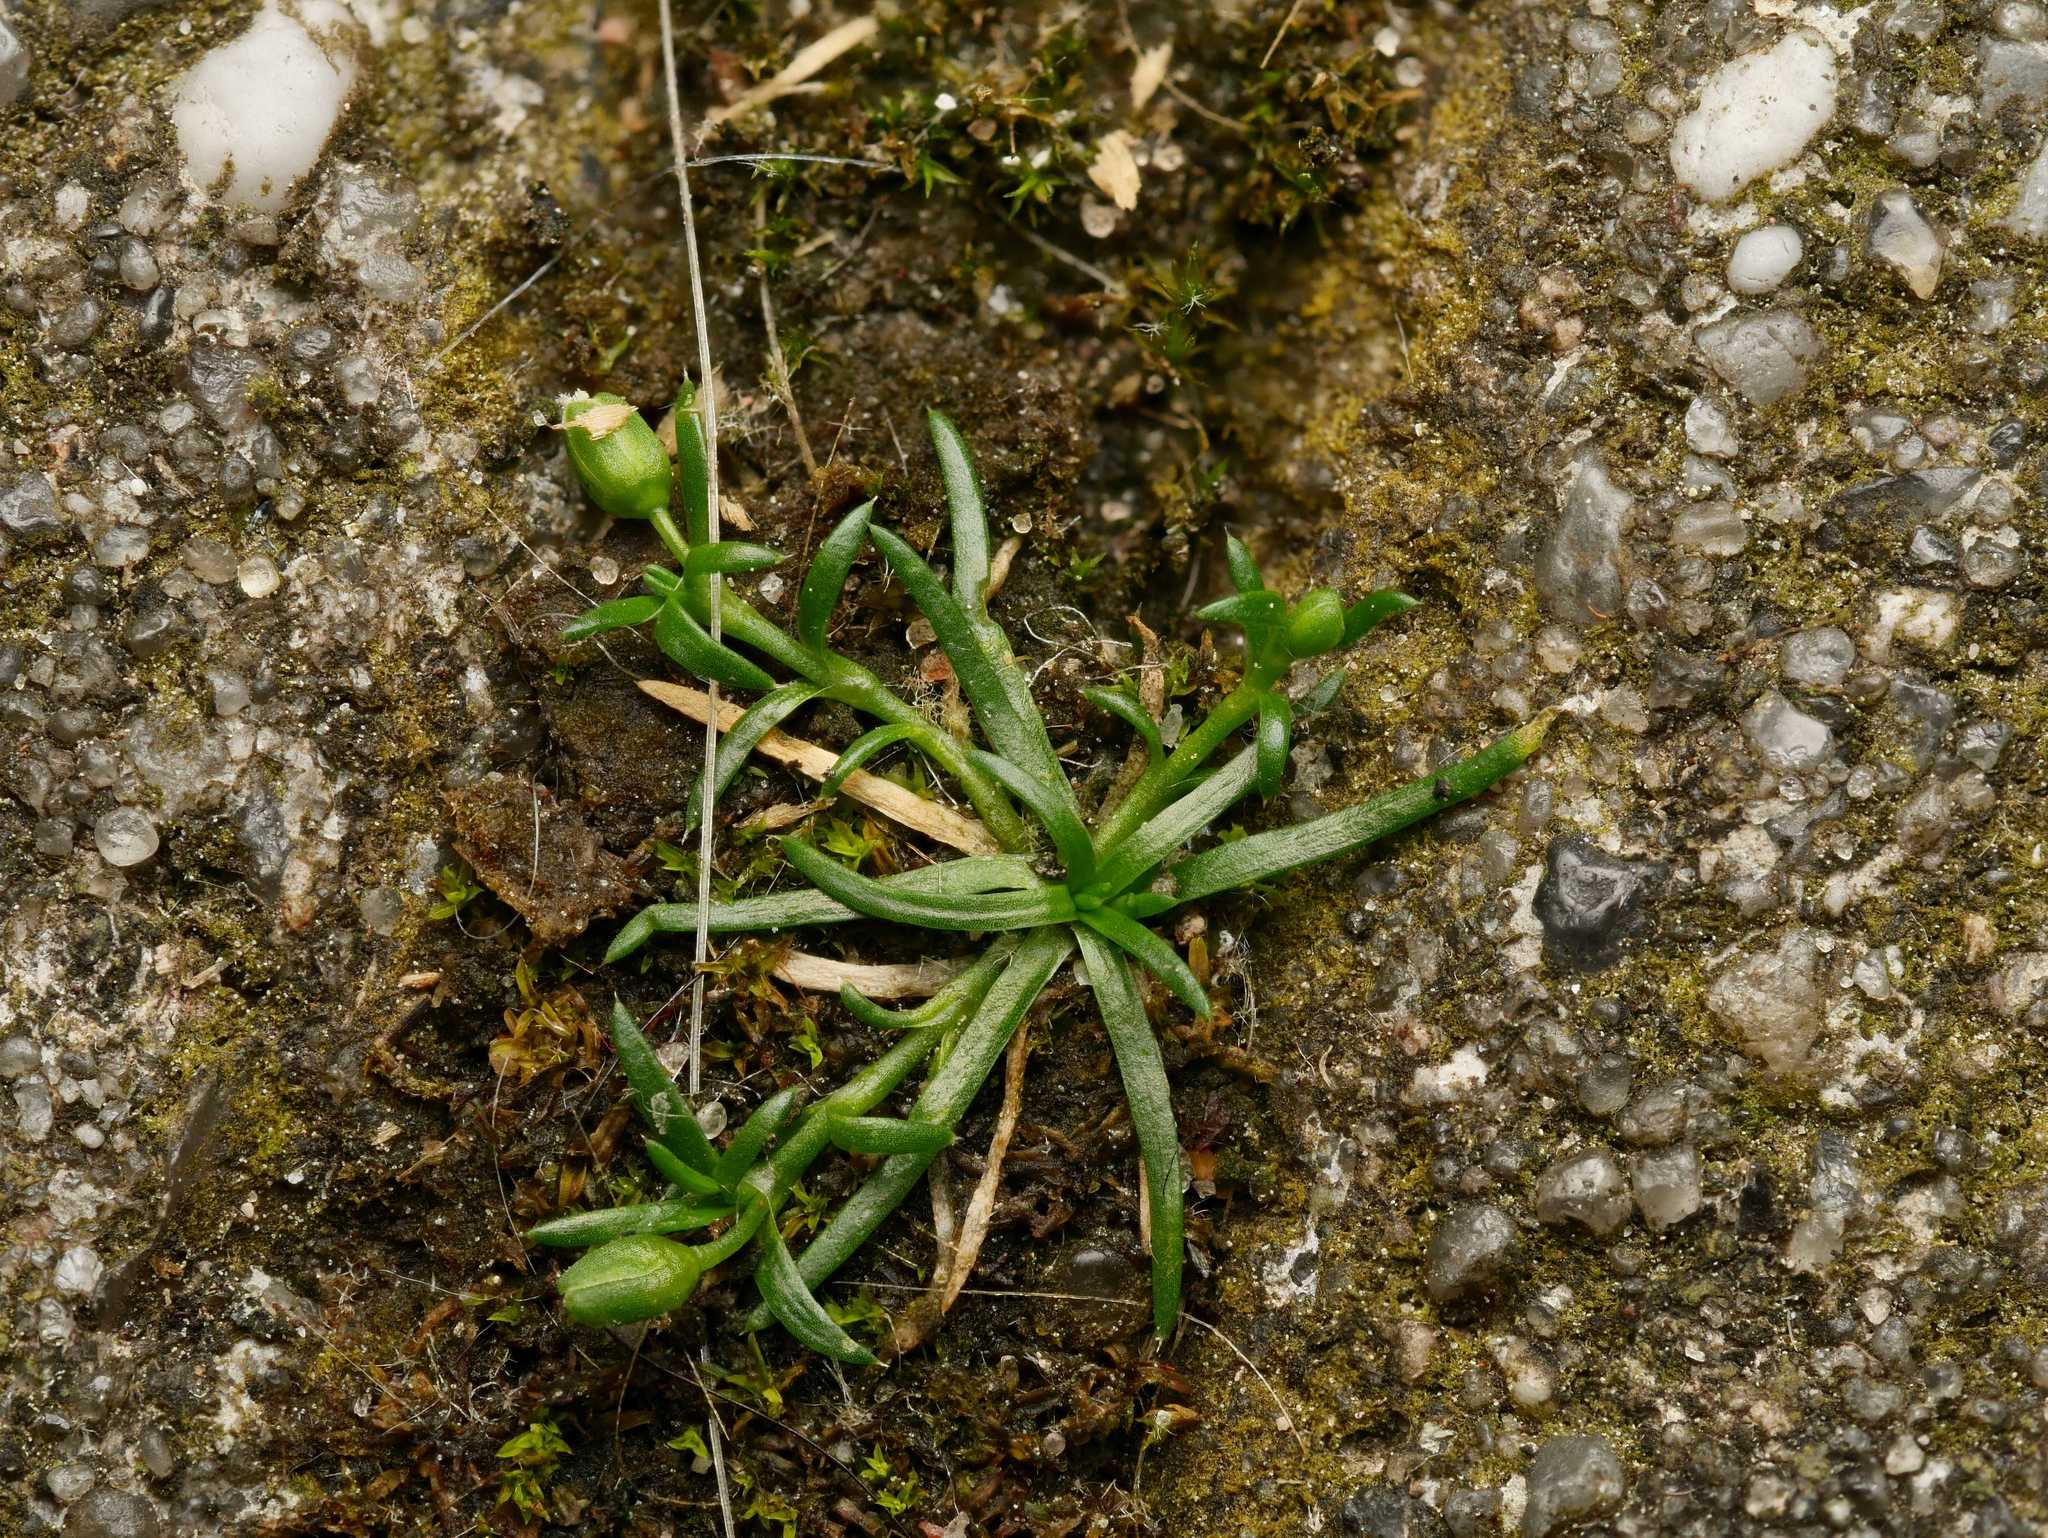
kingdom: Plantae
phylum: Tracheophyta
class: Magnoliopsida
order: Caryophyllales
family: Caryophyllaceae
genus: Sagina
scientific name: Sagina procumbens
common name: Procumbent pearlwort
